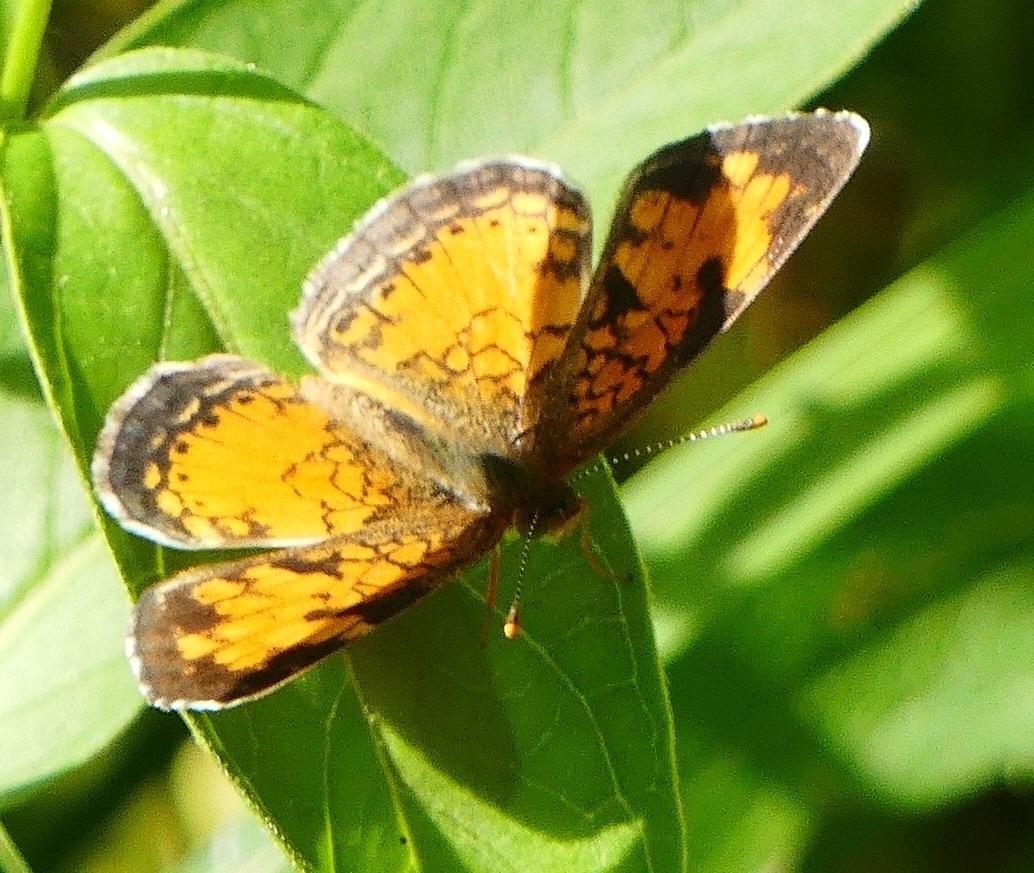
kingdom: Animalia
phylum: Arthropoda
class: Insecta
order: Lepidoptera
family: Nymphalidae
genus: Phyciodes
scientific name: Phyciodes tharos
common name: Pearl crescent
